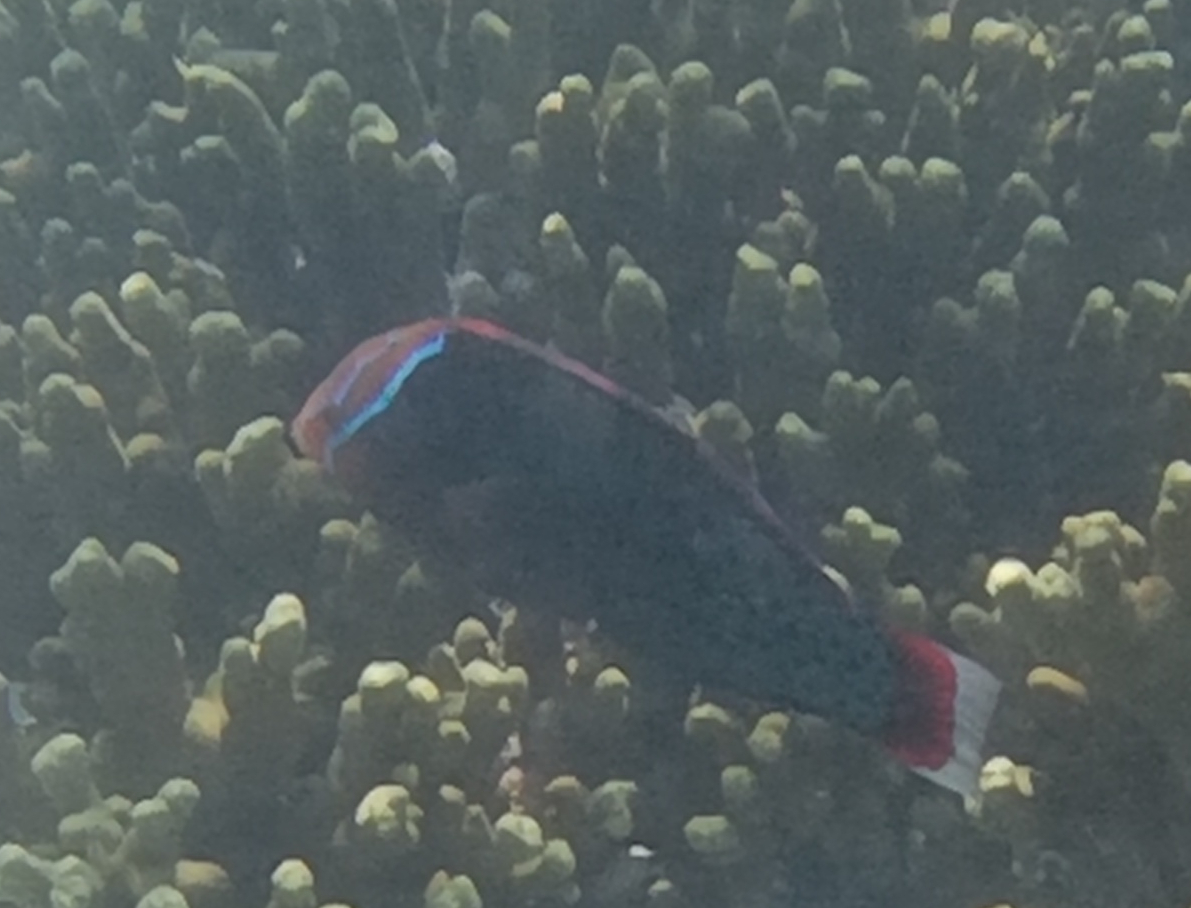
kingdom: Animalia
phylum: Chordata
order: Perciformes
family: Labridae
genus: Coris
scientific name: Coris formosa
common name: Queen coris
